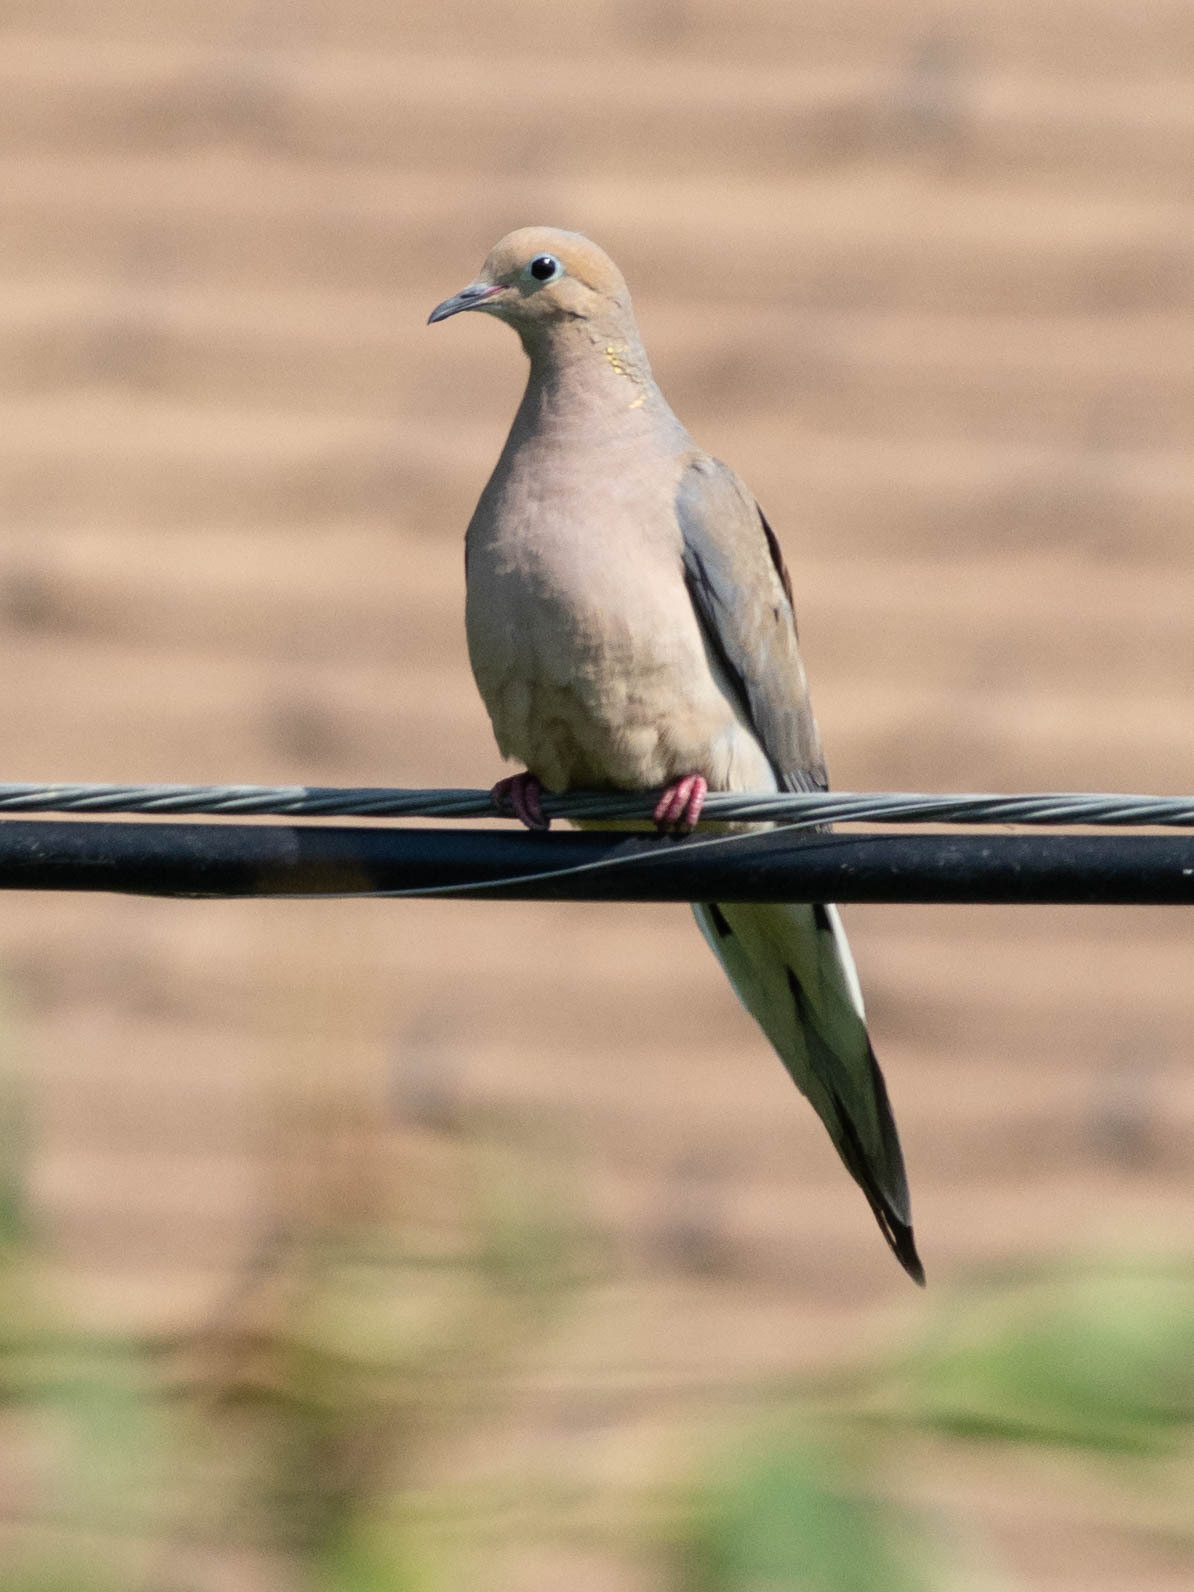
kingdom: Animalia
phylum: Chordata
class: Aves
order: Columbiformes
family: Columbidae
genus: Zenaida
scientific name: Zenaida macroura
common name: Mourning dove
